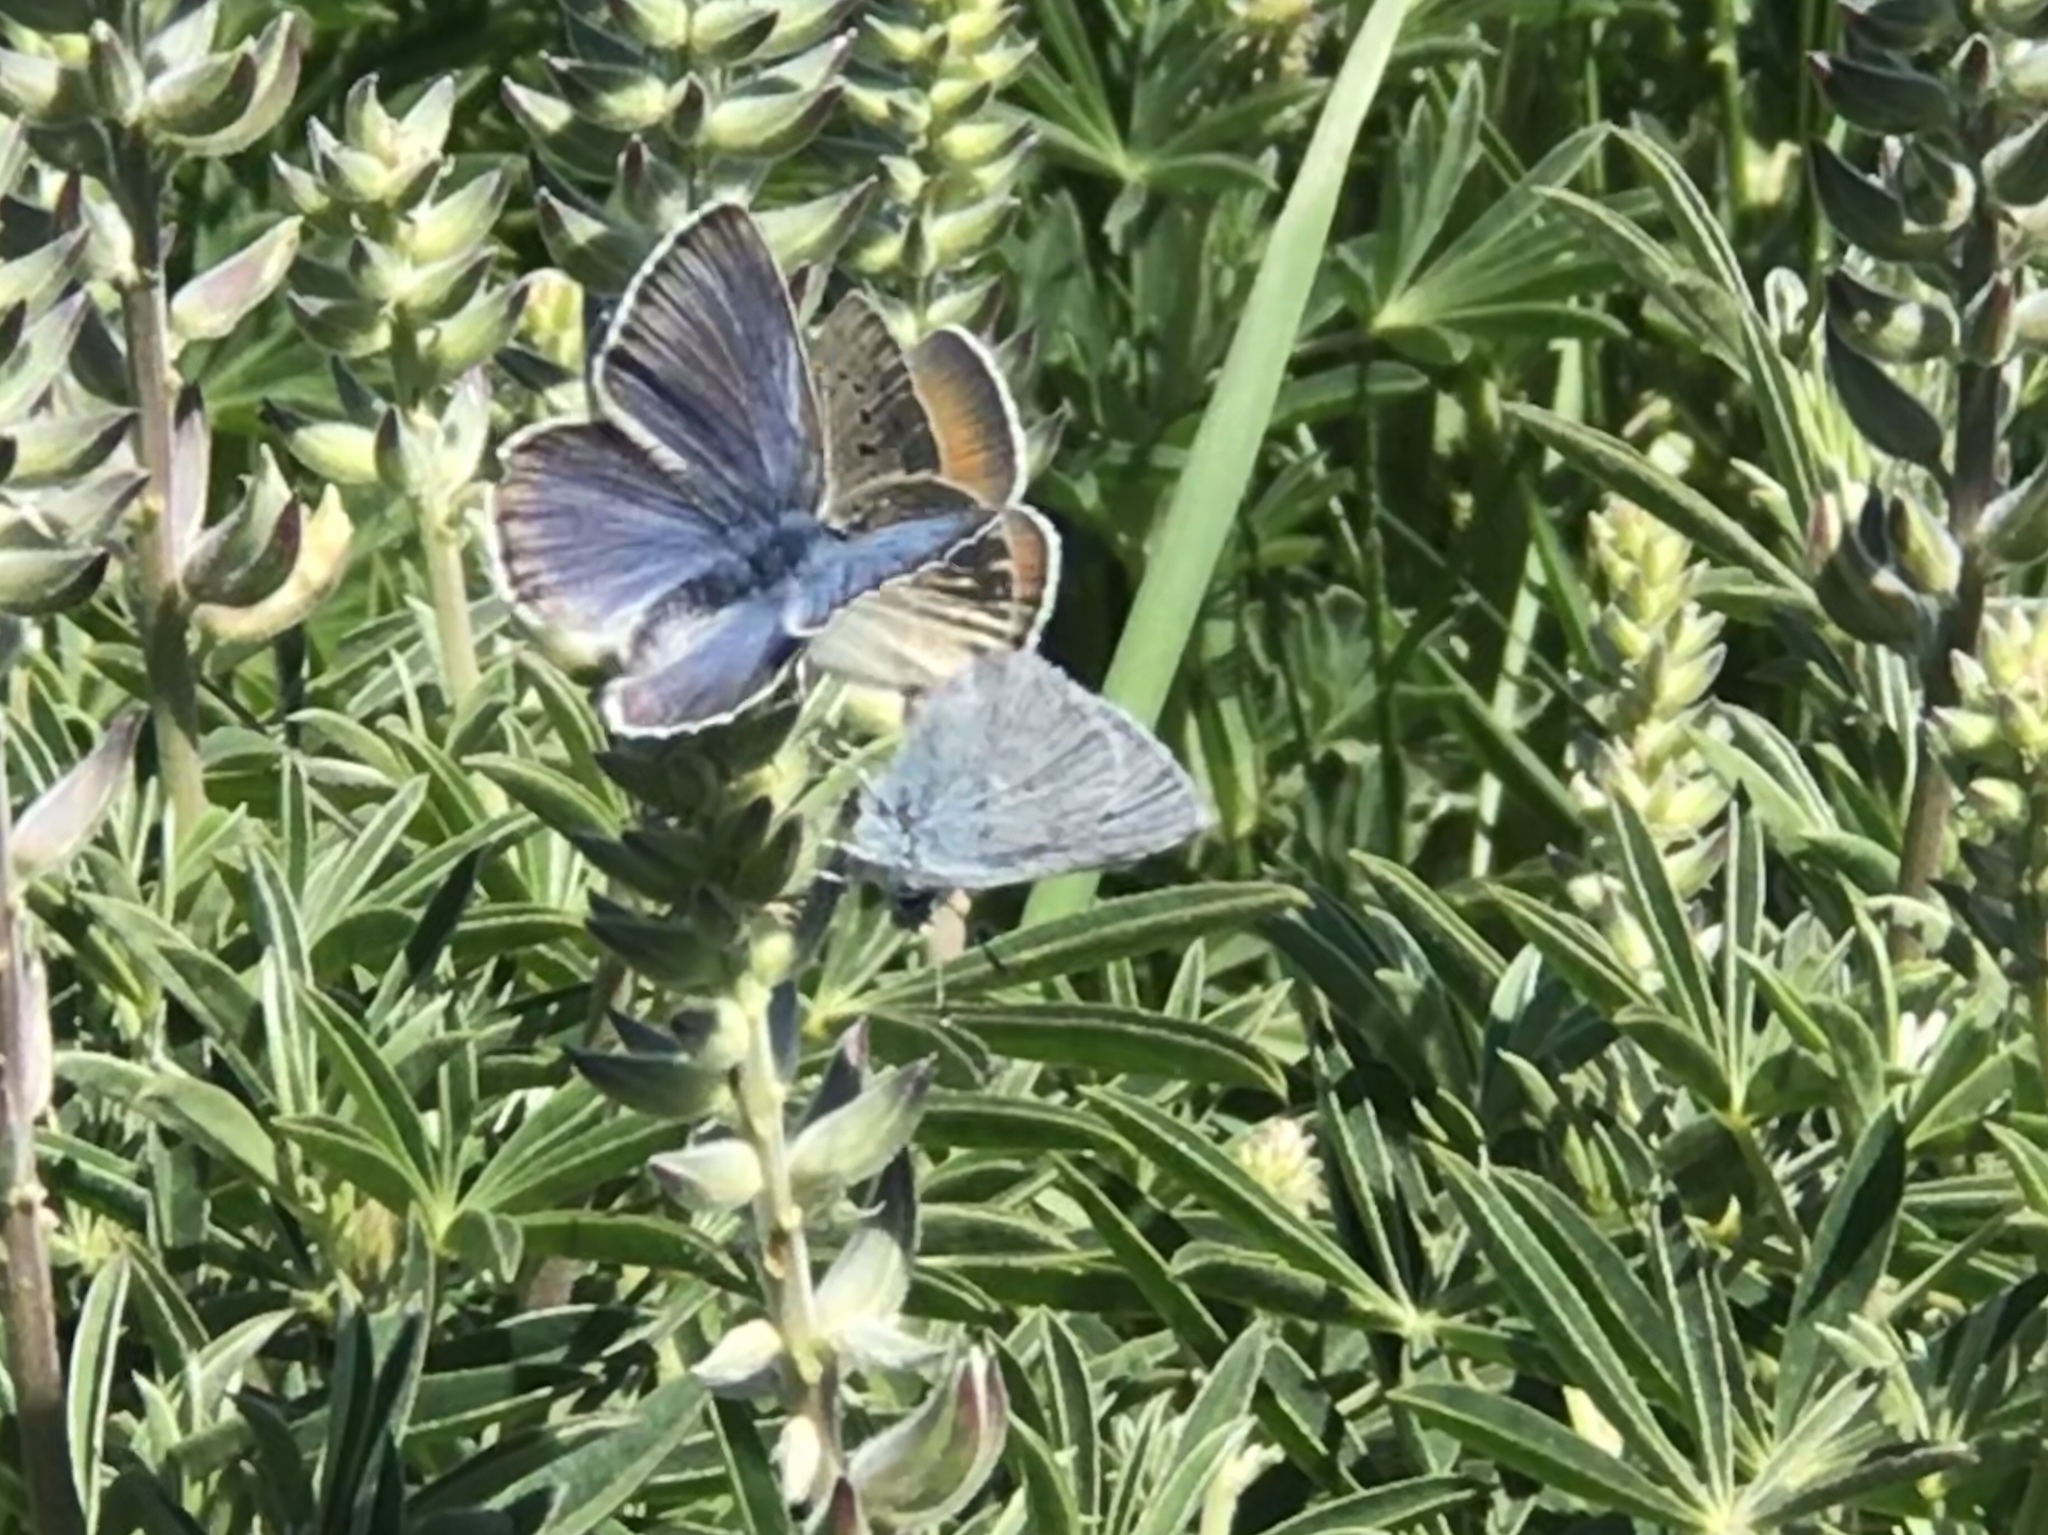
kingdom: Animalia
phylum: Arthropoda
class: Insecta
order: Lepidoptera
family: Lycaenidae
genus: Icaricia
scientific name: Icaricia icarioides
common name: Boisduval's blue
